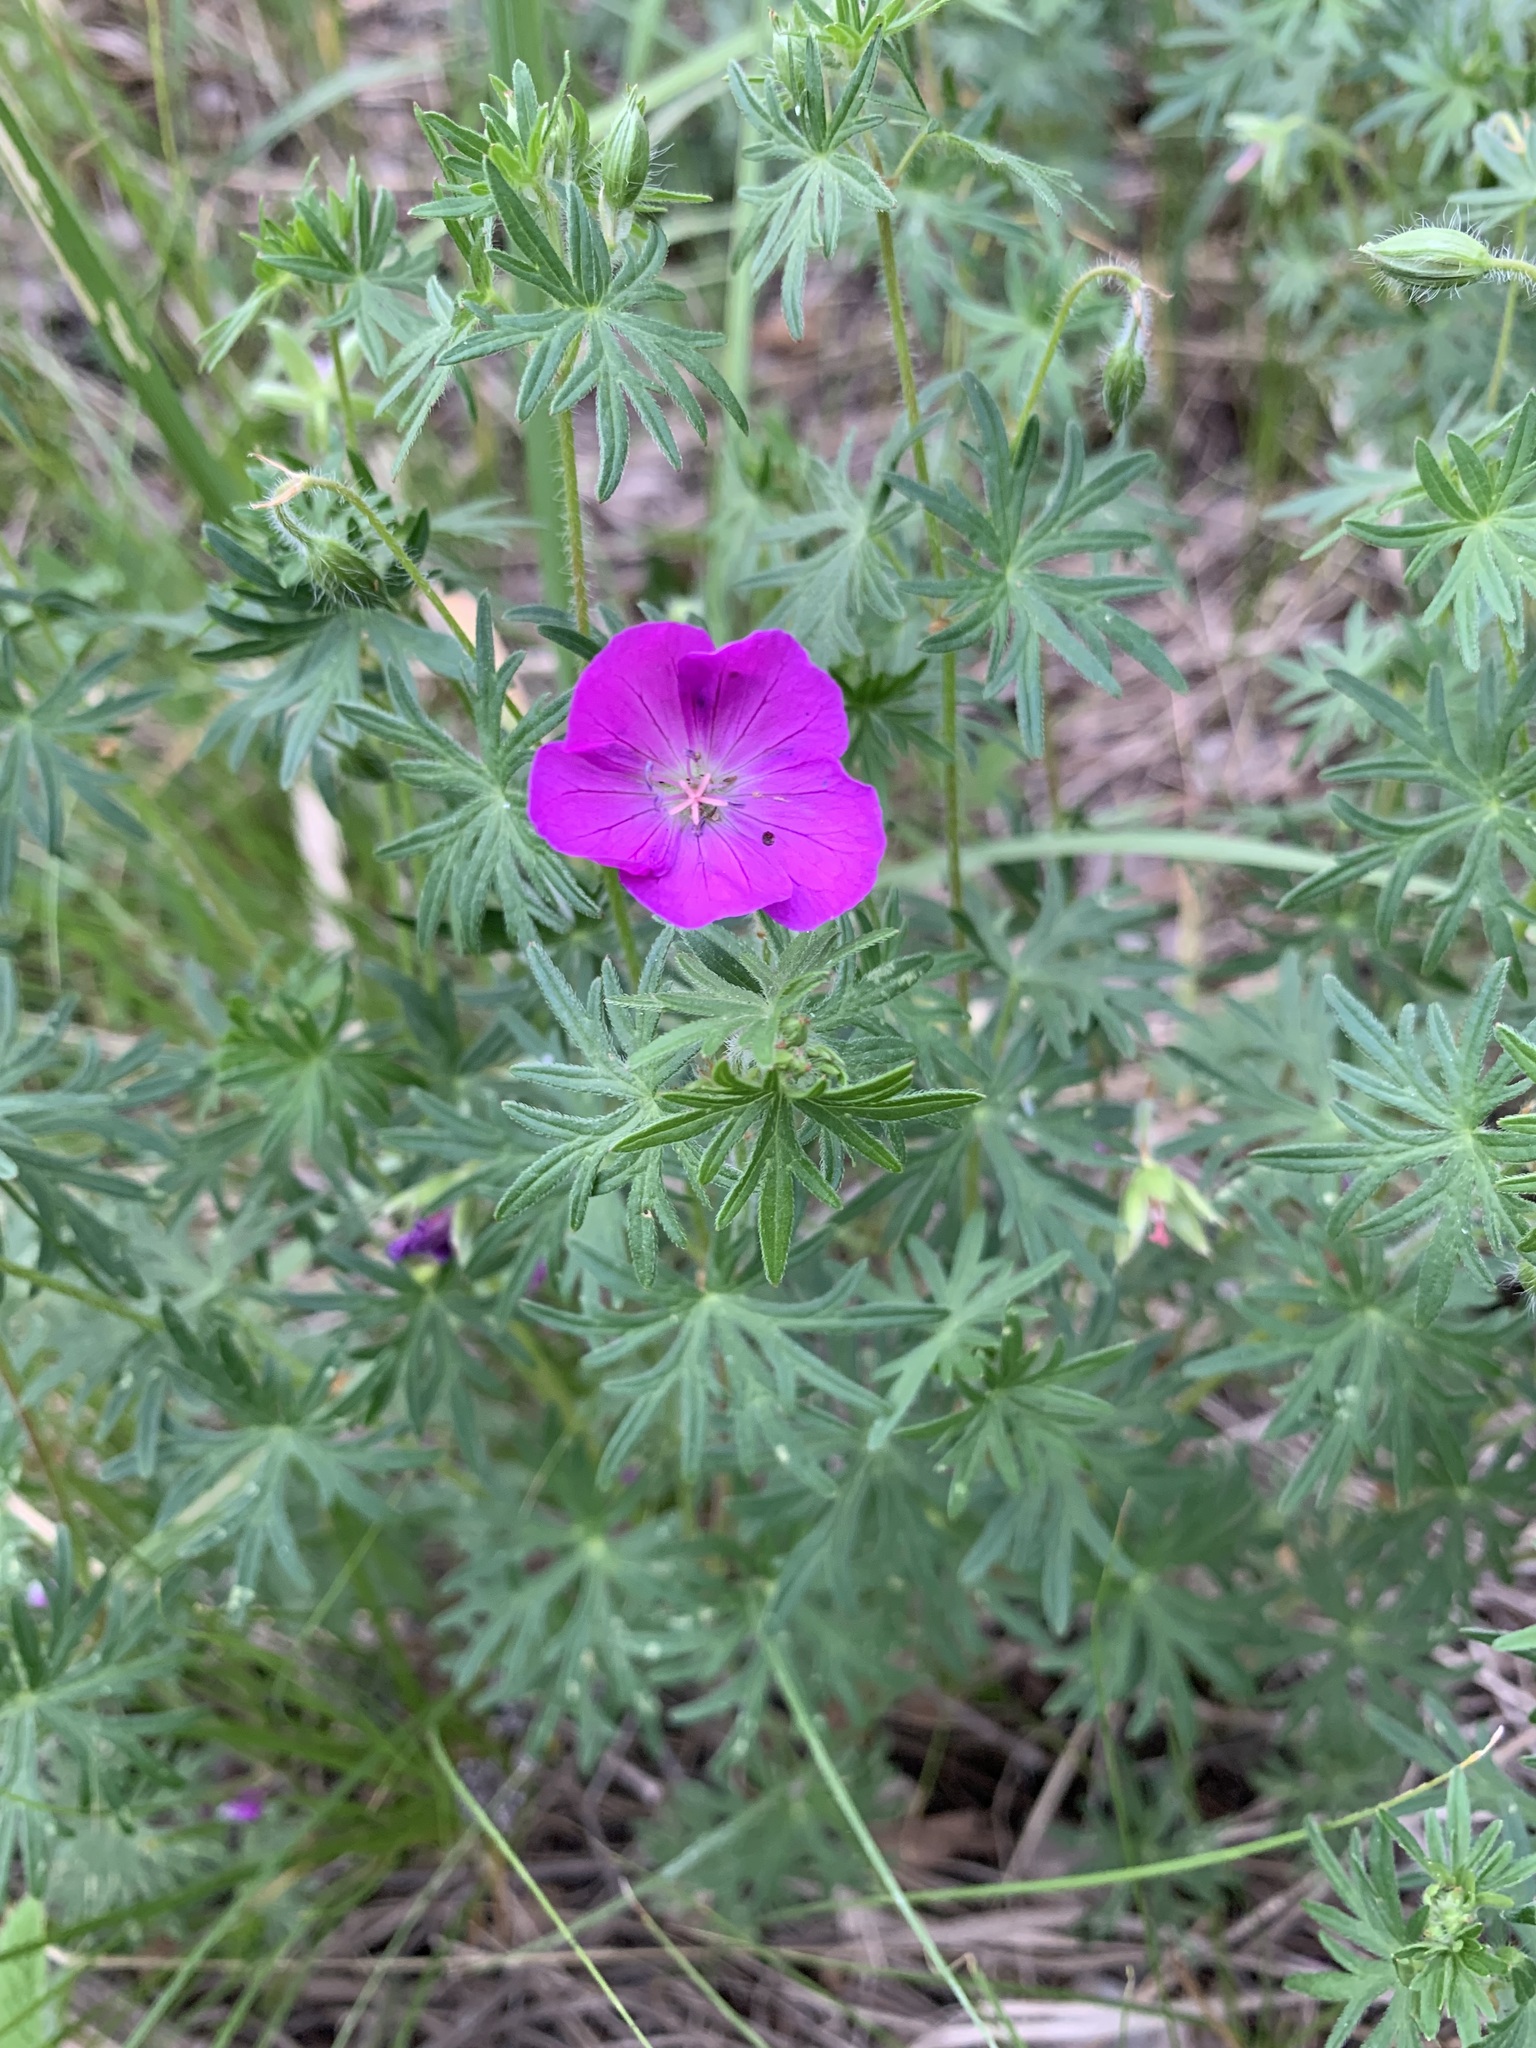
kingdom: Plantae
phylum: Tracheophyta
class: Magnoliopsida
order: Geraniales
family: Geraniaceae
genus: Geranium
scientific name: Geranium sanguineum
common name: Bloody crane's-bill
